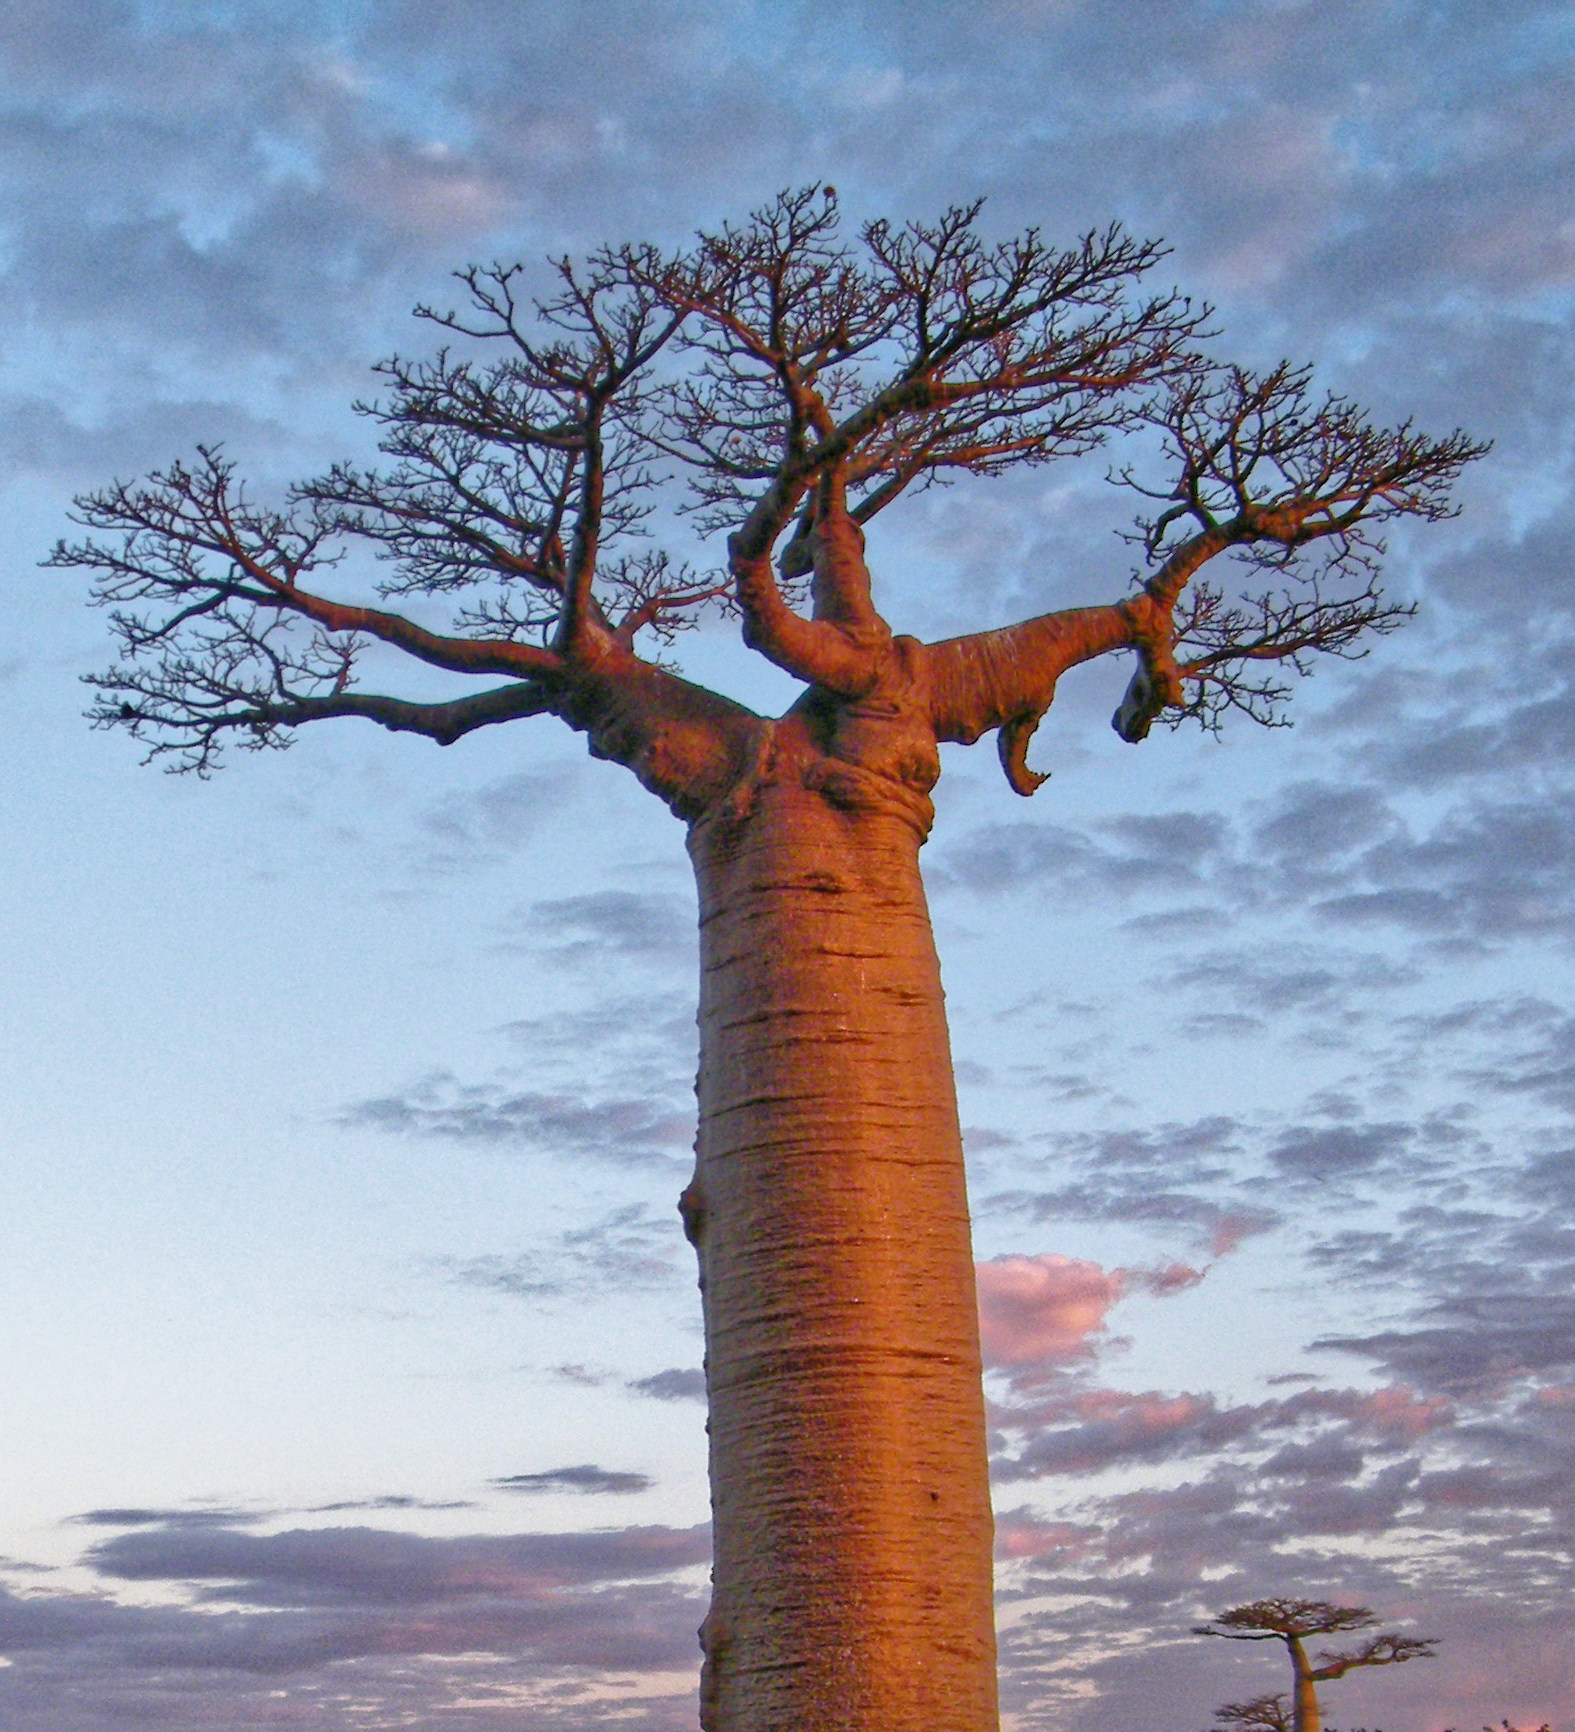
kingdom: Plantae
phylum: Tracheophyta
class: Magnoliopsida
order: Malvales
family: Malvaceae
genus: Adansonia
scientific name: Adansonia grandidieri
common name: Grandidier's baobab
